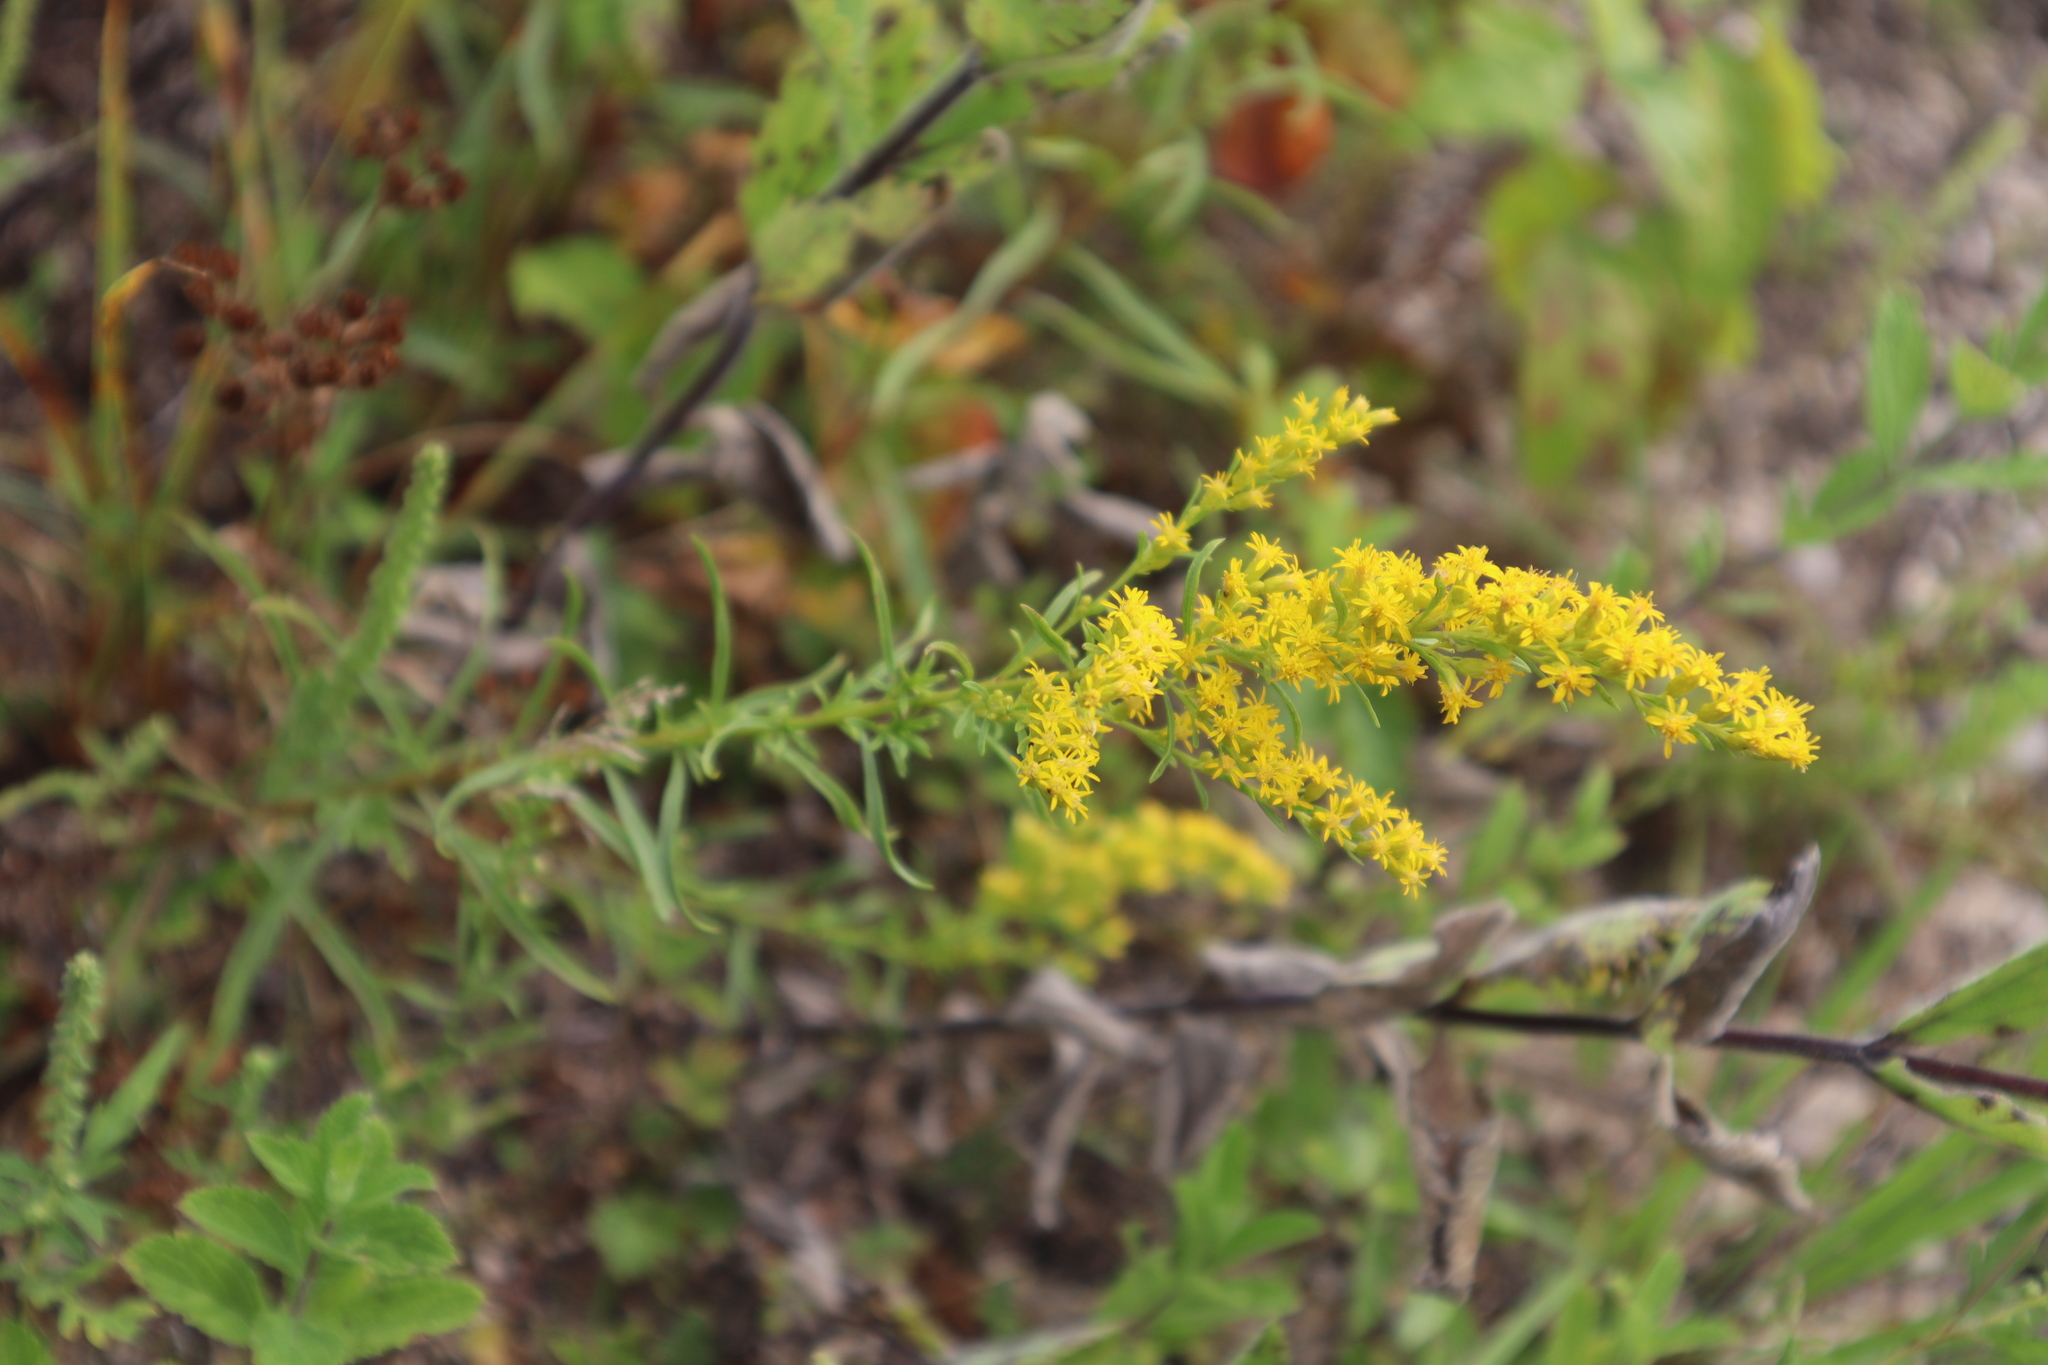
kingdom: Plantae
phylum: Tracheophyta
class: Magnoliopsida
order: Asterales
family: Asteraceae
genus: Solidago
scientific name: Solidago nemoralis
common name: Grey goldenrod
